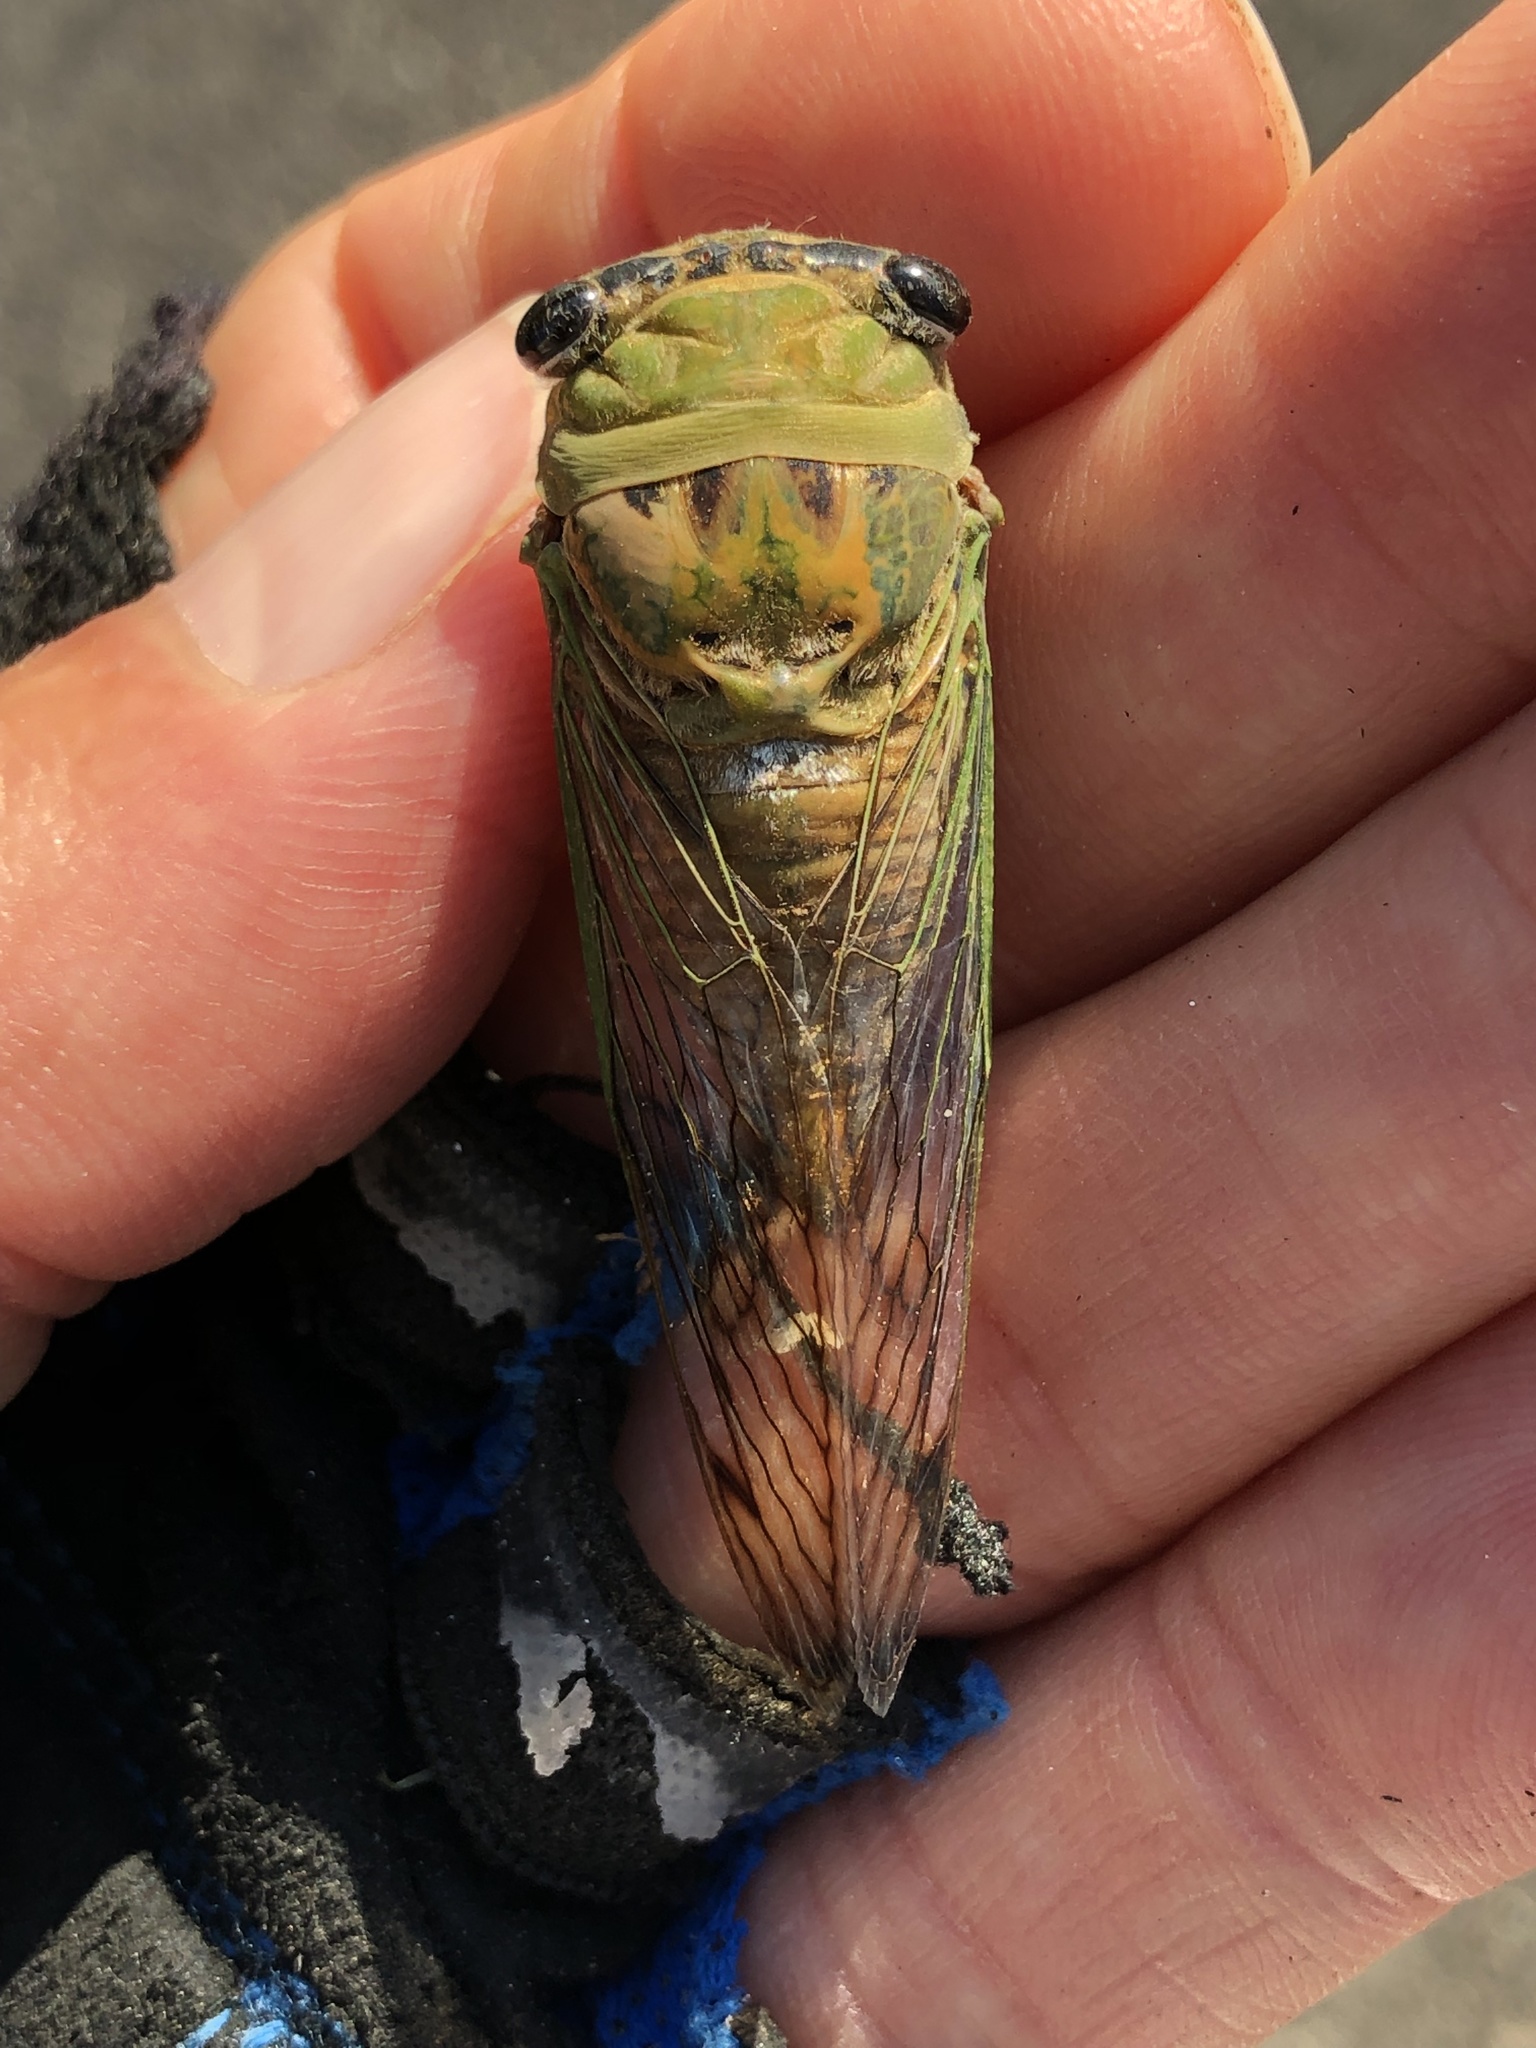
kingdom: Animalia
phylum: Arthropoda
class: Insecta
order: Hemiptera
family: Cicadidae
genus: Neotibicen
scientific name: Neotibicen superbus
